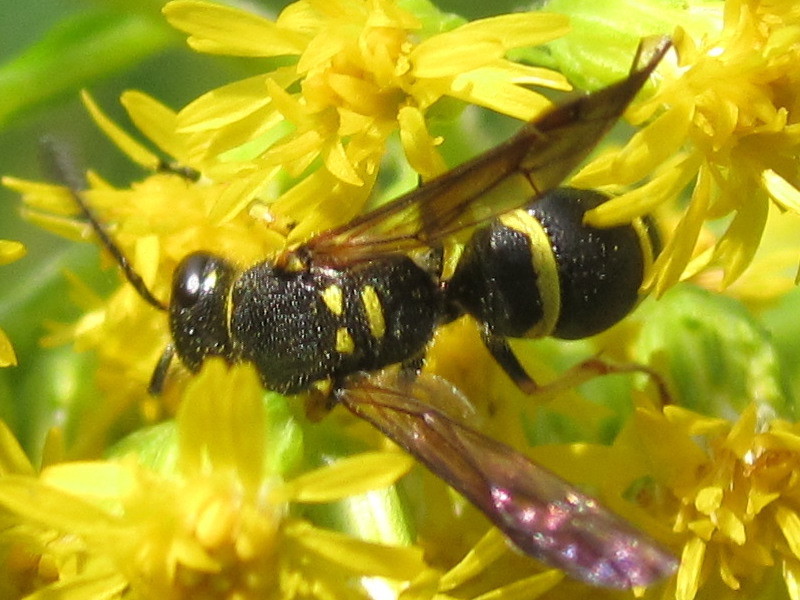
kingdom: Animalia
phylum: Arthropoda
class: Insecta
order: Hymenoptera
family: Vespidae
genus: Ancistrocerus
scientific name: Ancistrocerus adiabatus
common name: Bramble mason wasp
